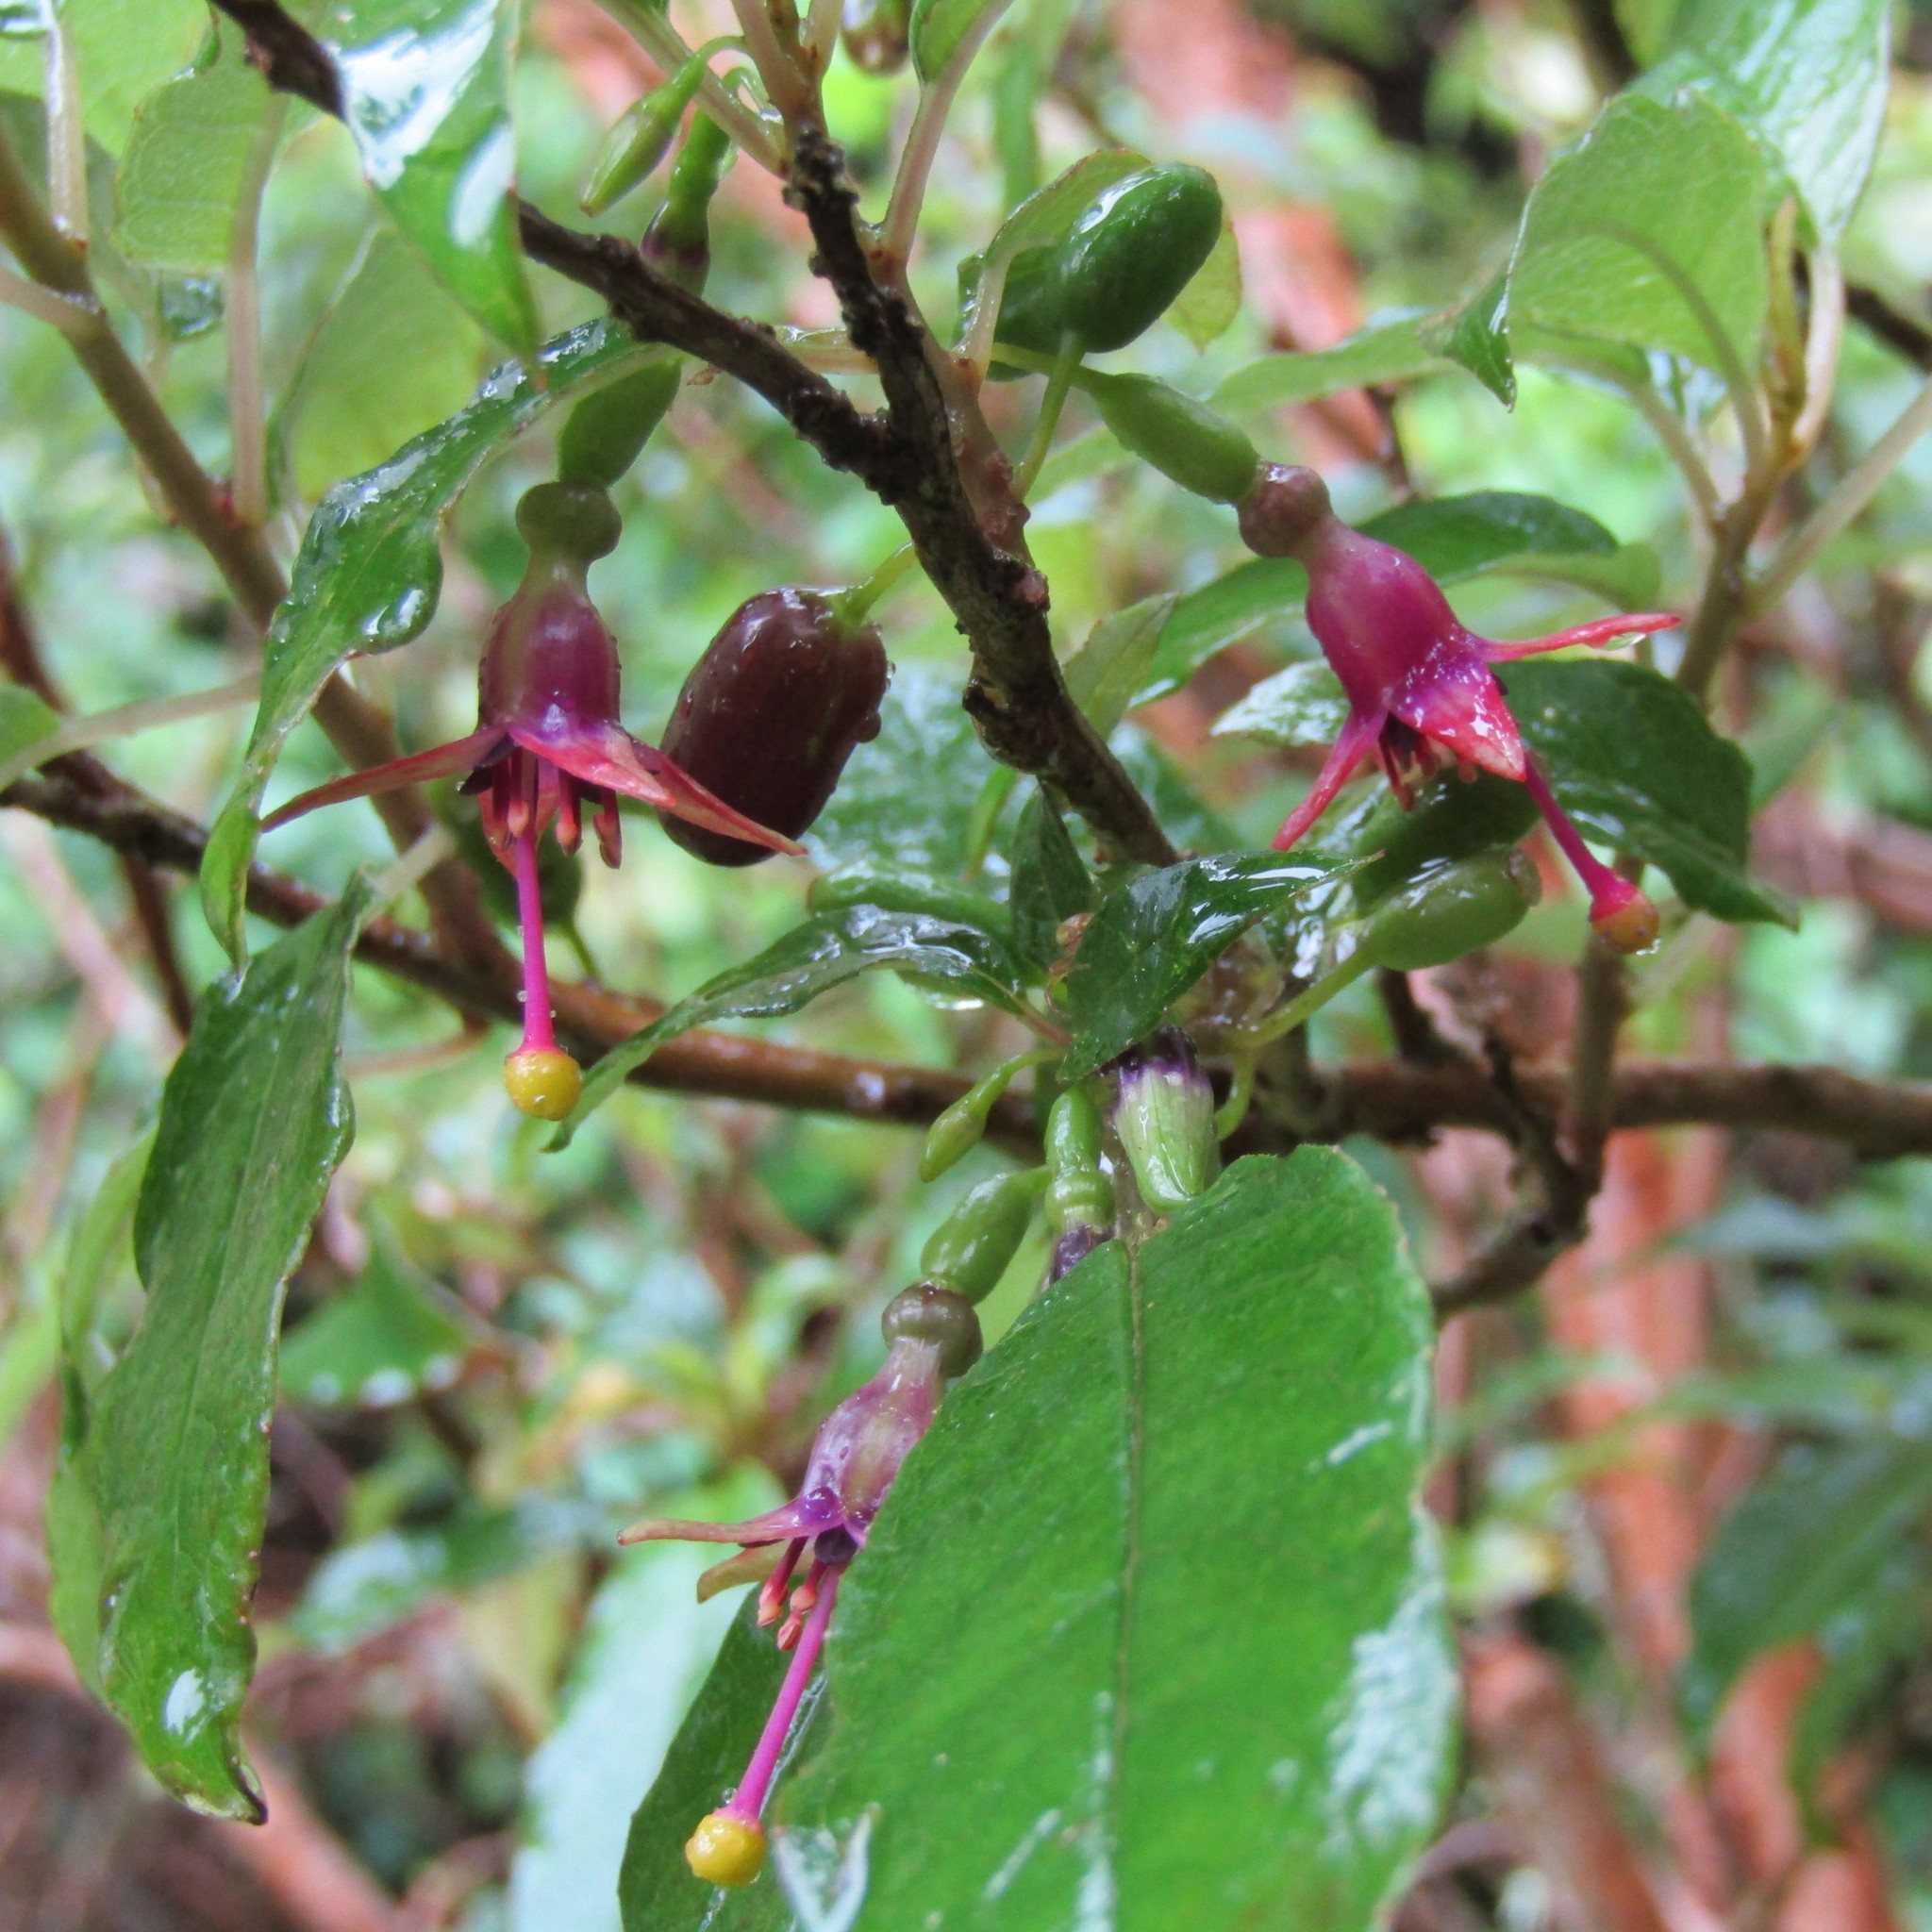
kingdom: Plantae
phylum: Tracheophyta
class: Magnoliopsida
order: Myrtales
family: Onagraceae
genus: Fuchsia
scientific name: Fuchsia excorticata
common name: Tree fuchsia
